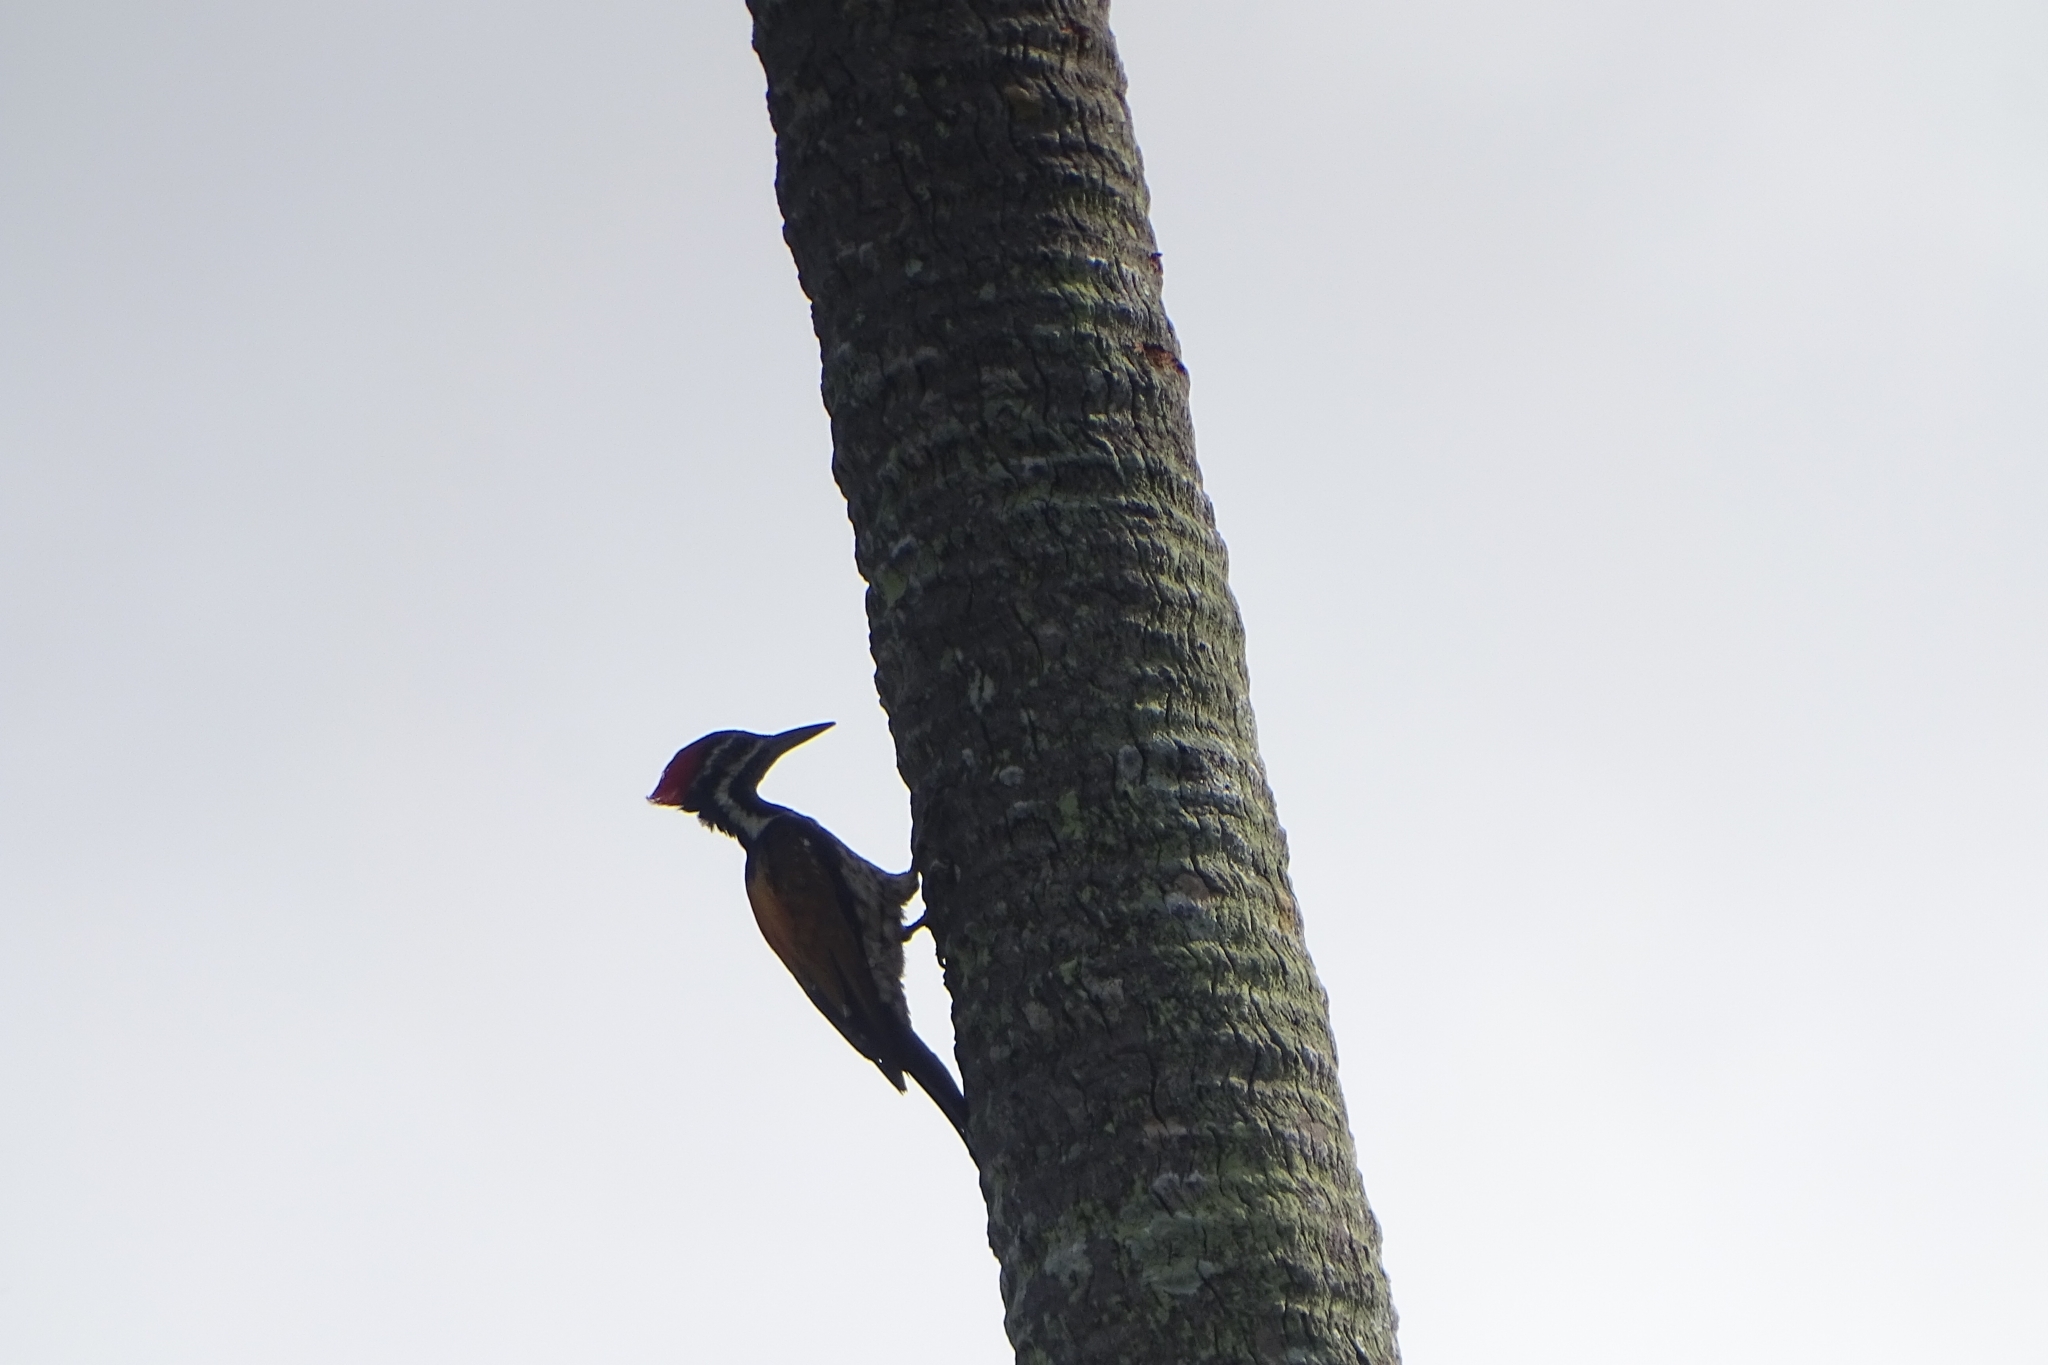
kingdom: Animalia
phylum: Chordata
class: Aves
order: Piciformes
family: Picidae
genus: Dinopium
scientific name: Dinopium benghalense
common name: Black-rumped flameback
